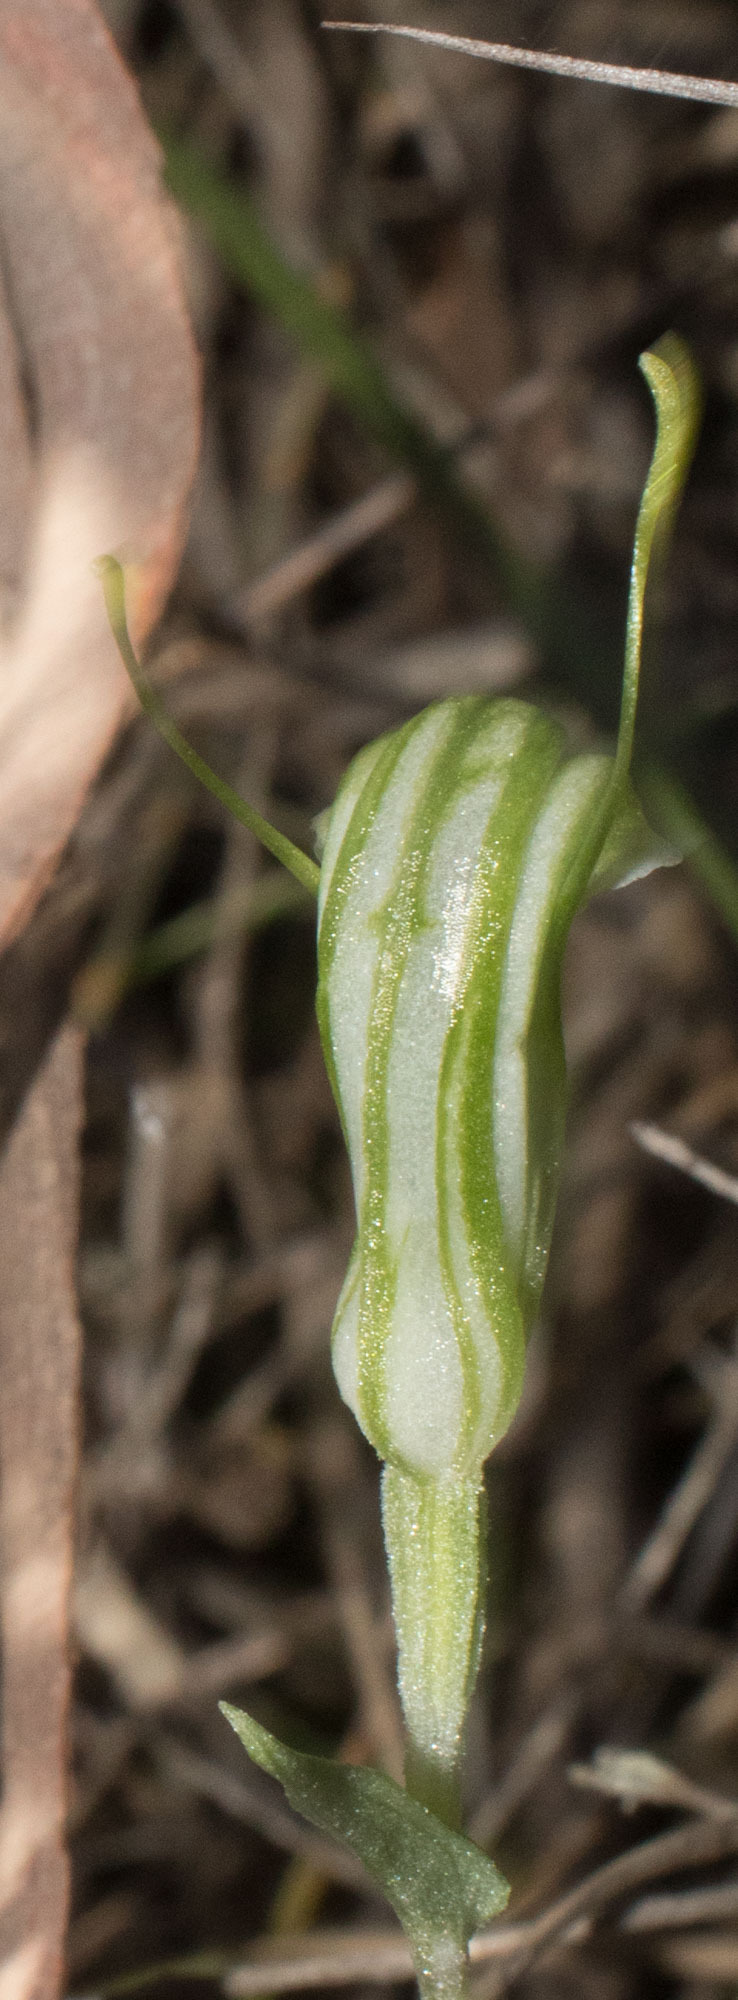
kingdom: Plantae
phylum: Tracheophyta
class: Liliopsida
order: Asparagales
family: Orchidaceae
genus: Pterostylis
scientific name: Pterostylis dilatata
